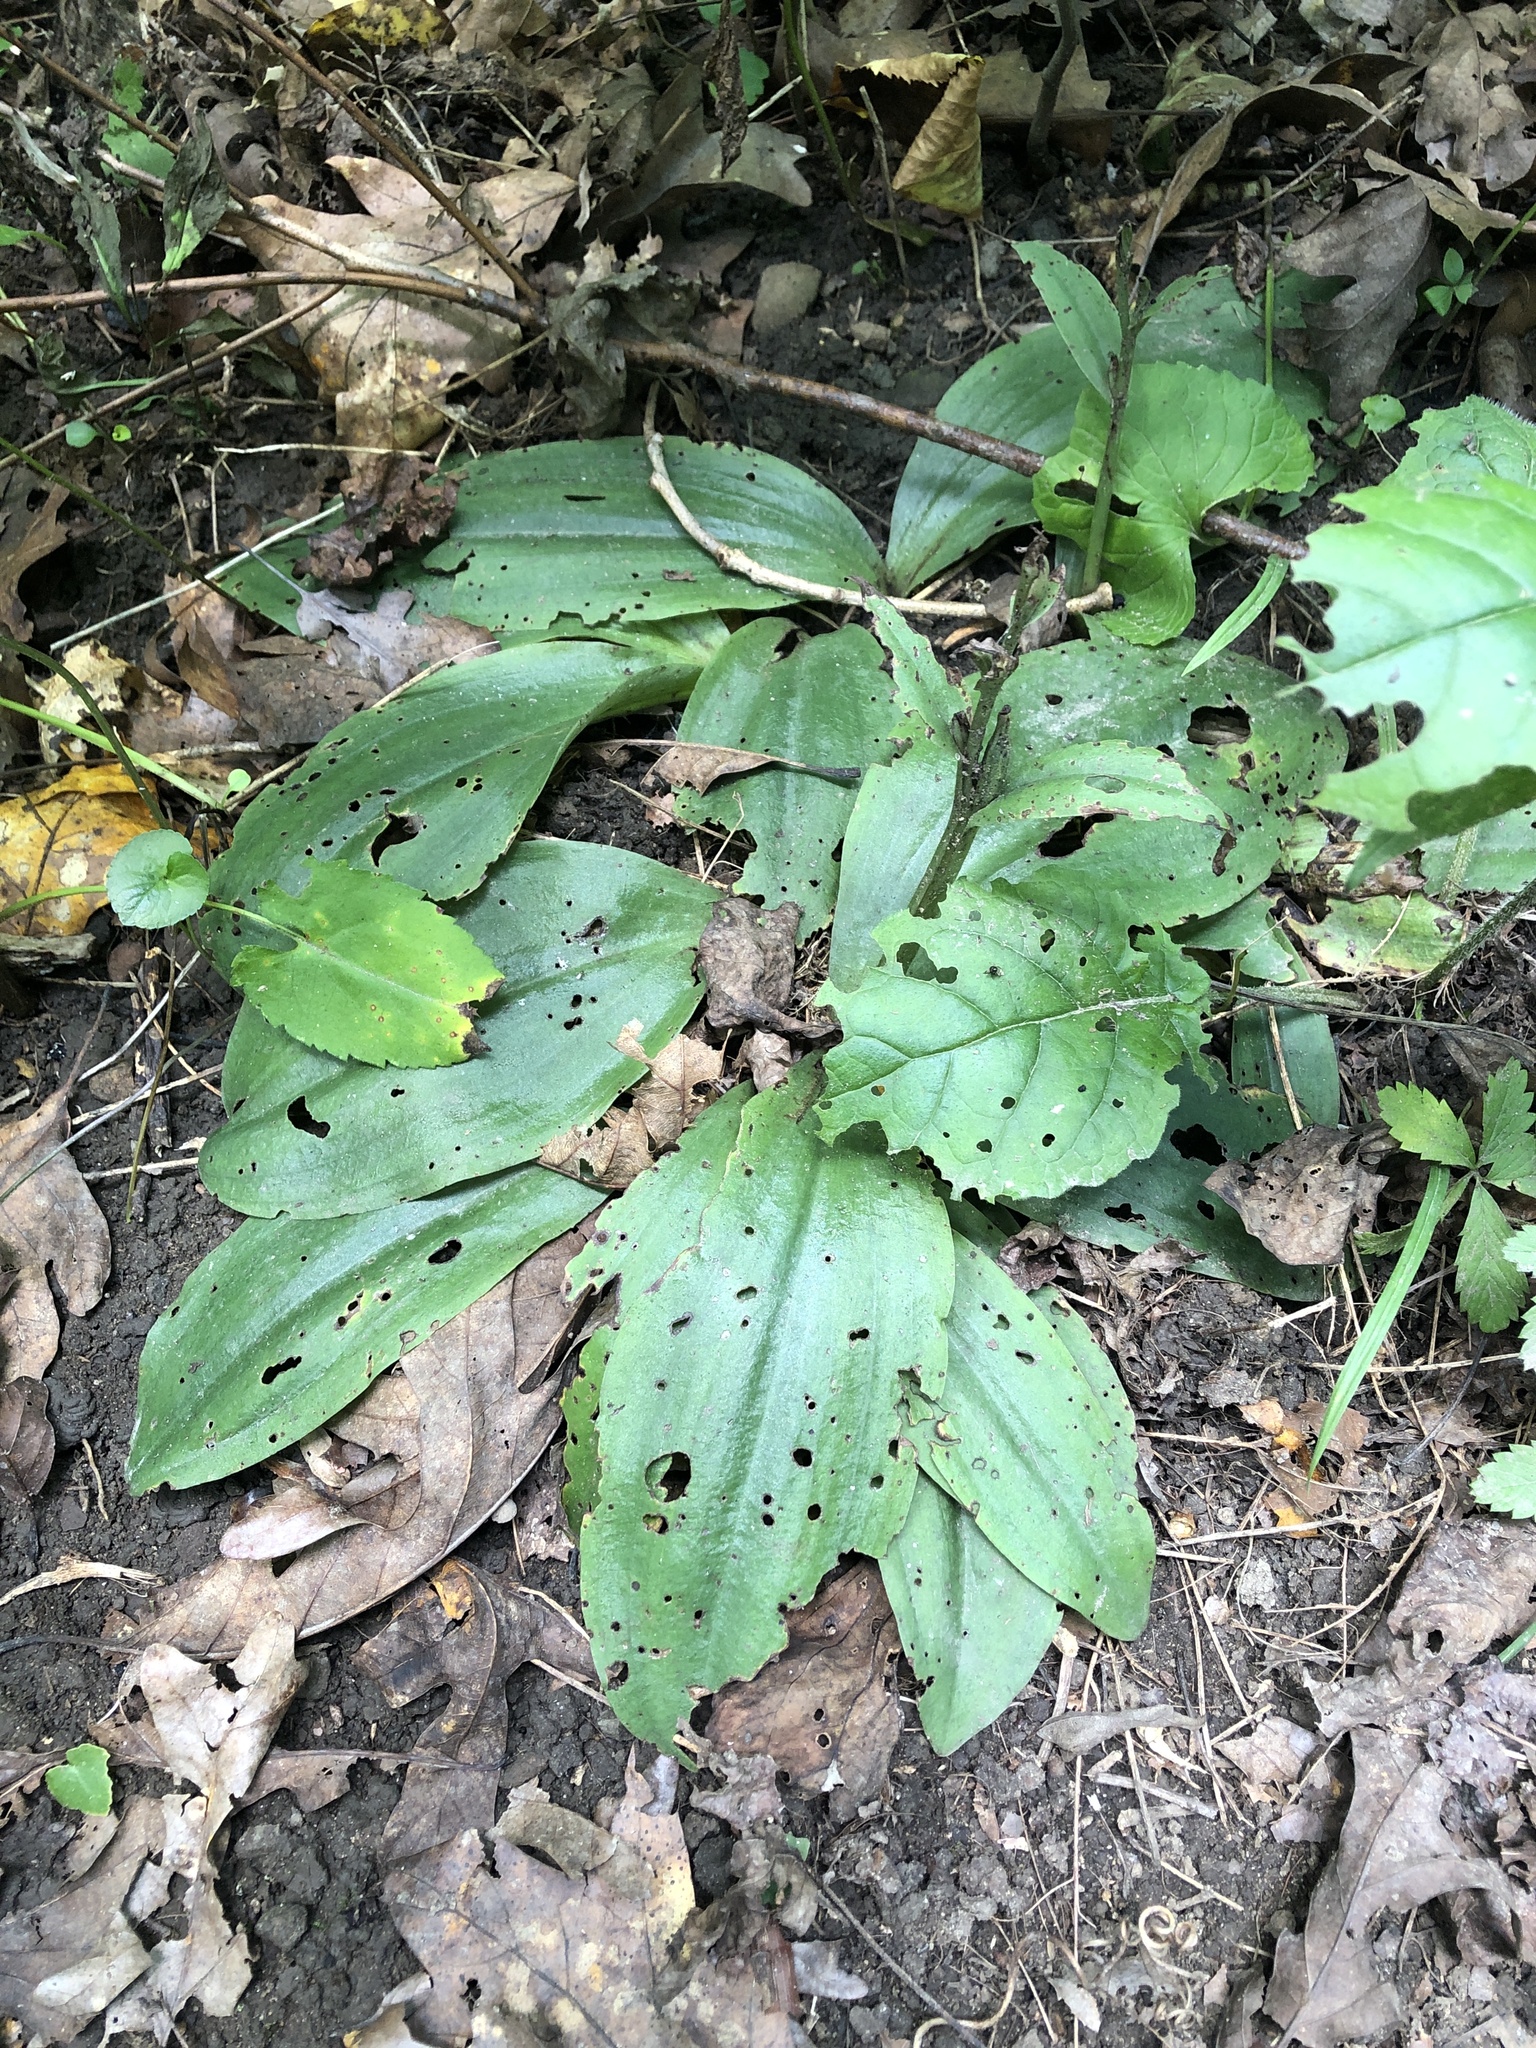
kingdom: Plantae
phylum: Tracheophyta
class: Liliopsida
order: Asparagales
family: Orchidaceae
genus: Galearis
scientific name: Galearis spectabilis
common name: Purple-hooded orchis
